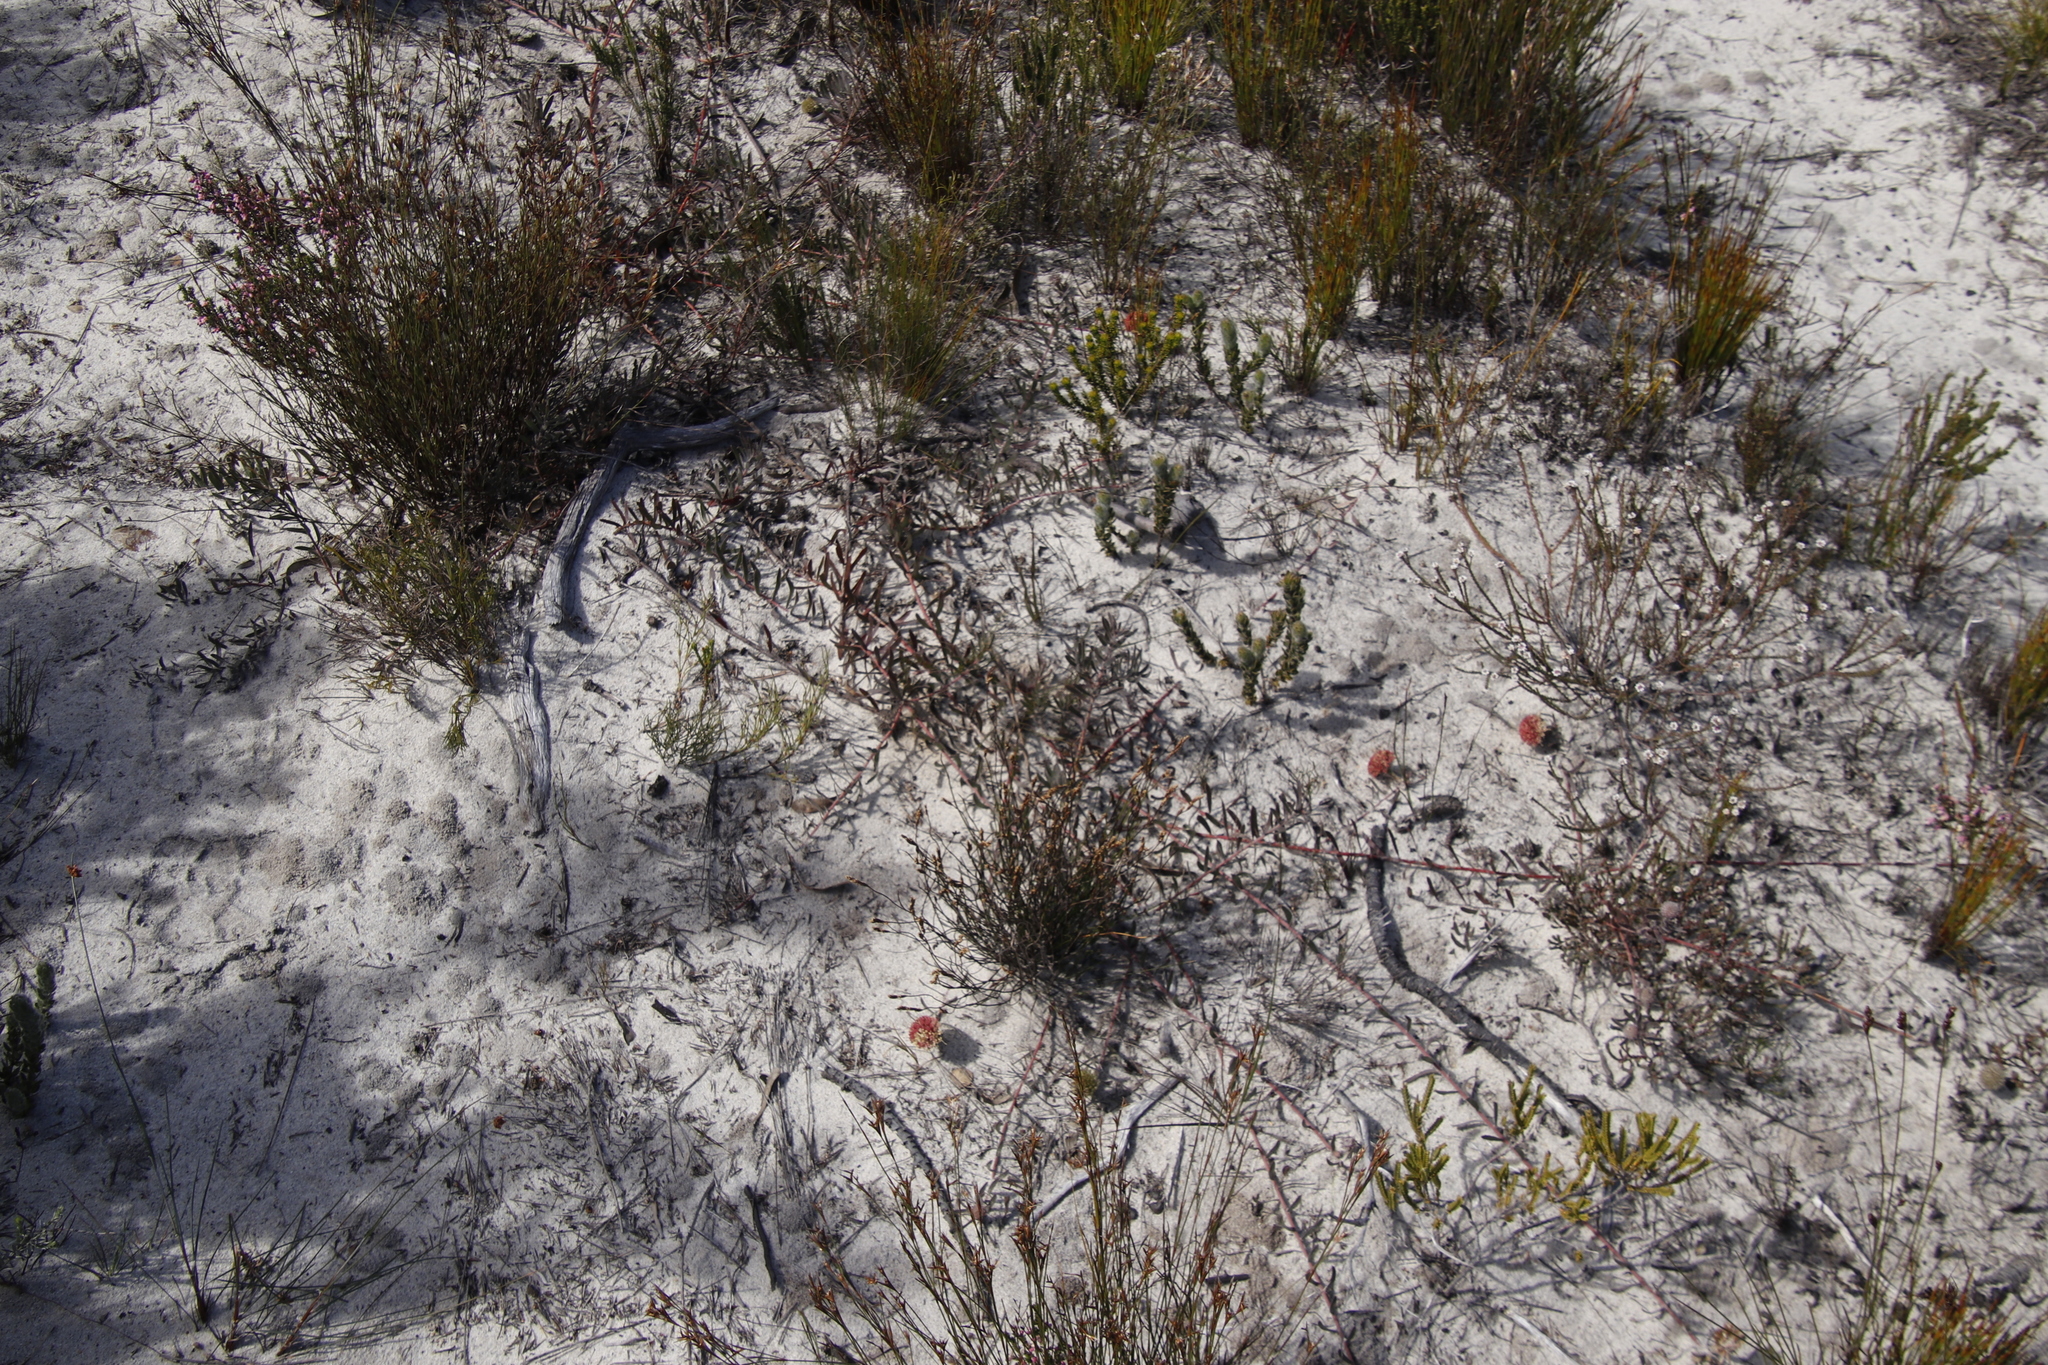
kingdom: Plantae
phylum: Tracheophyta
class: Magnoliopsida
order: Proteales
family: Proteaceae
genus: Leucospermum
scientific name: Leucospermum pedunculatum
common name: White-trailing pincushion
